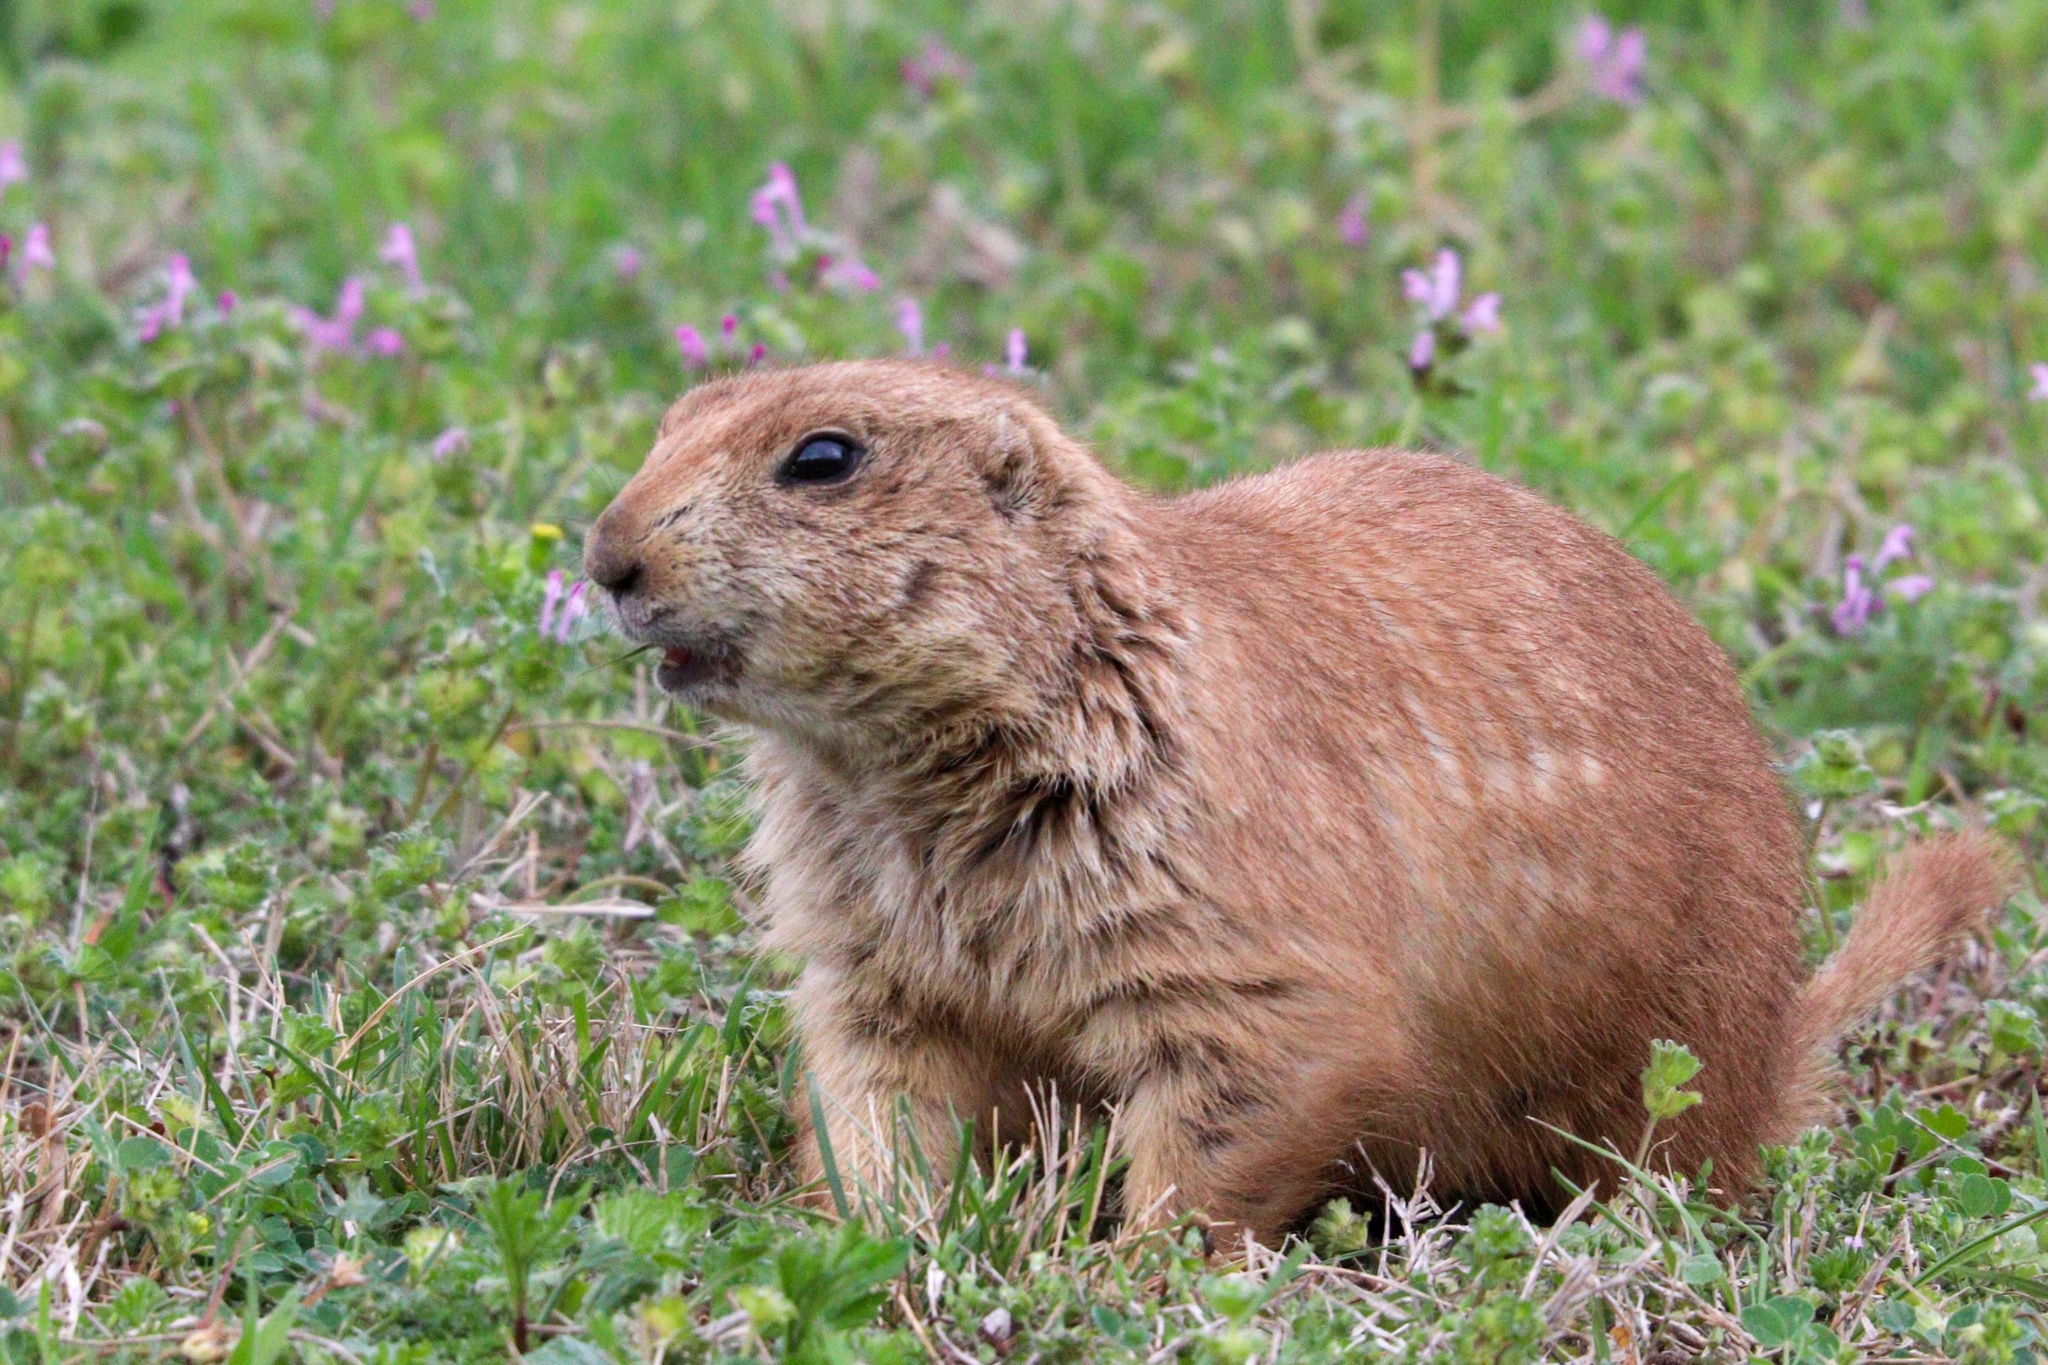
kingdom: Animalia
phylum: Chordata
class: Mammalia
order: Rodentia
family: Sciuridae
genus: Cynomys
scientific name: Cynomys ludovicianus
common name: Black-tailed prairie dog
